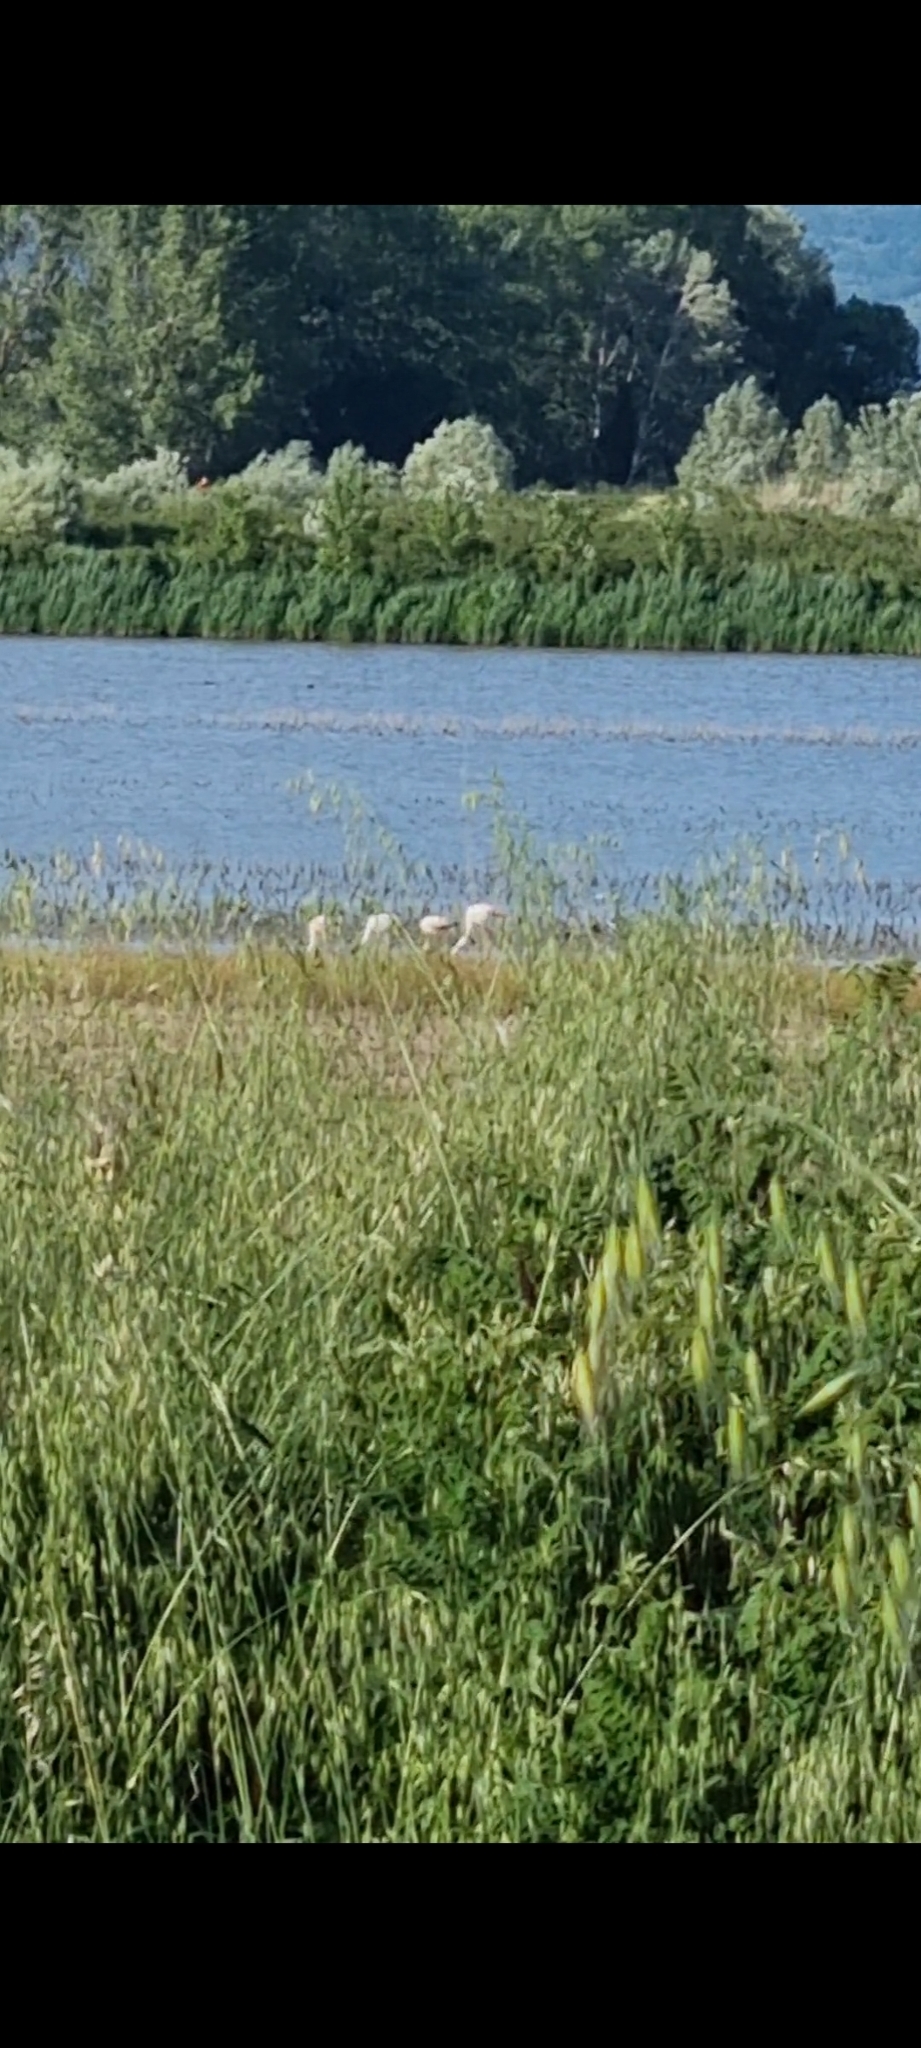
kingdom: Animalia
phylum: Chordata
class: Aves
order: Phoenicopteriformes
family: Phoenicopteridae
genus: Phoenicopterus
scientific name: Phoenicopterus roseus
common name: Greater flamingo
